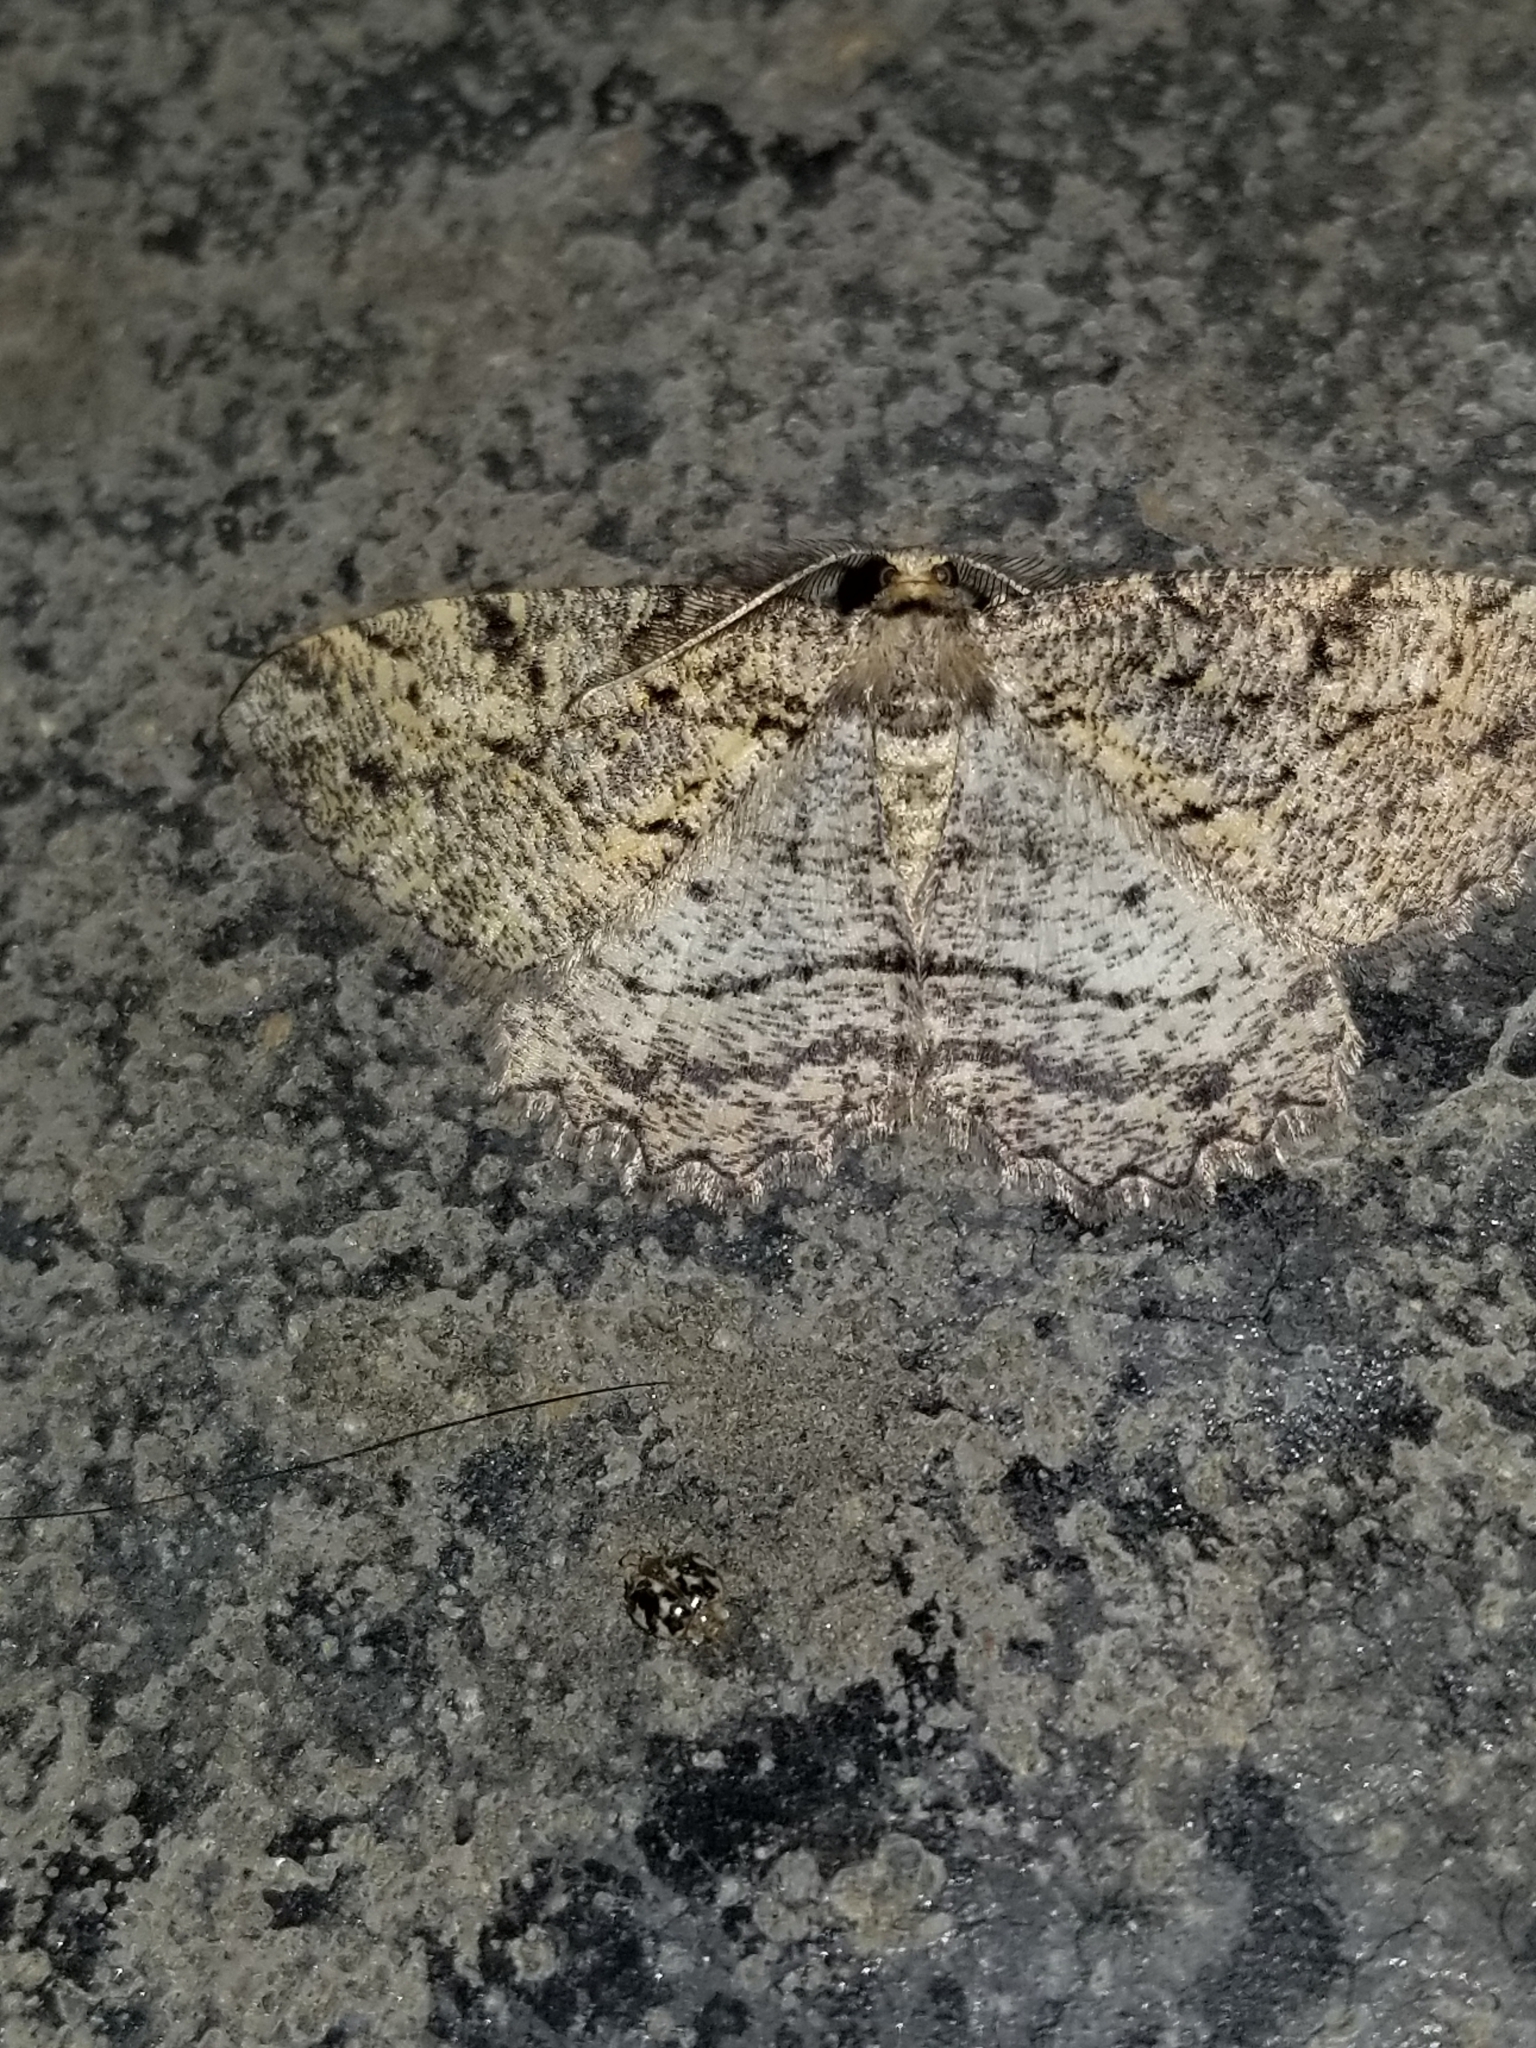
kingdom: Animalia
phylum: Arthropoda
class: Insecta
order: Lepidoptera
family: Geometridae
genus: Neoalcis
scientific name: Neoalcis californiaria
